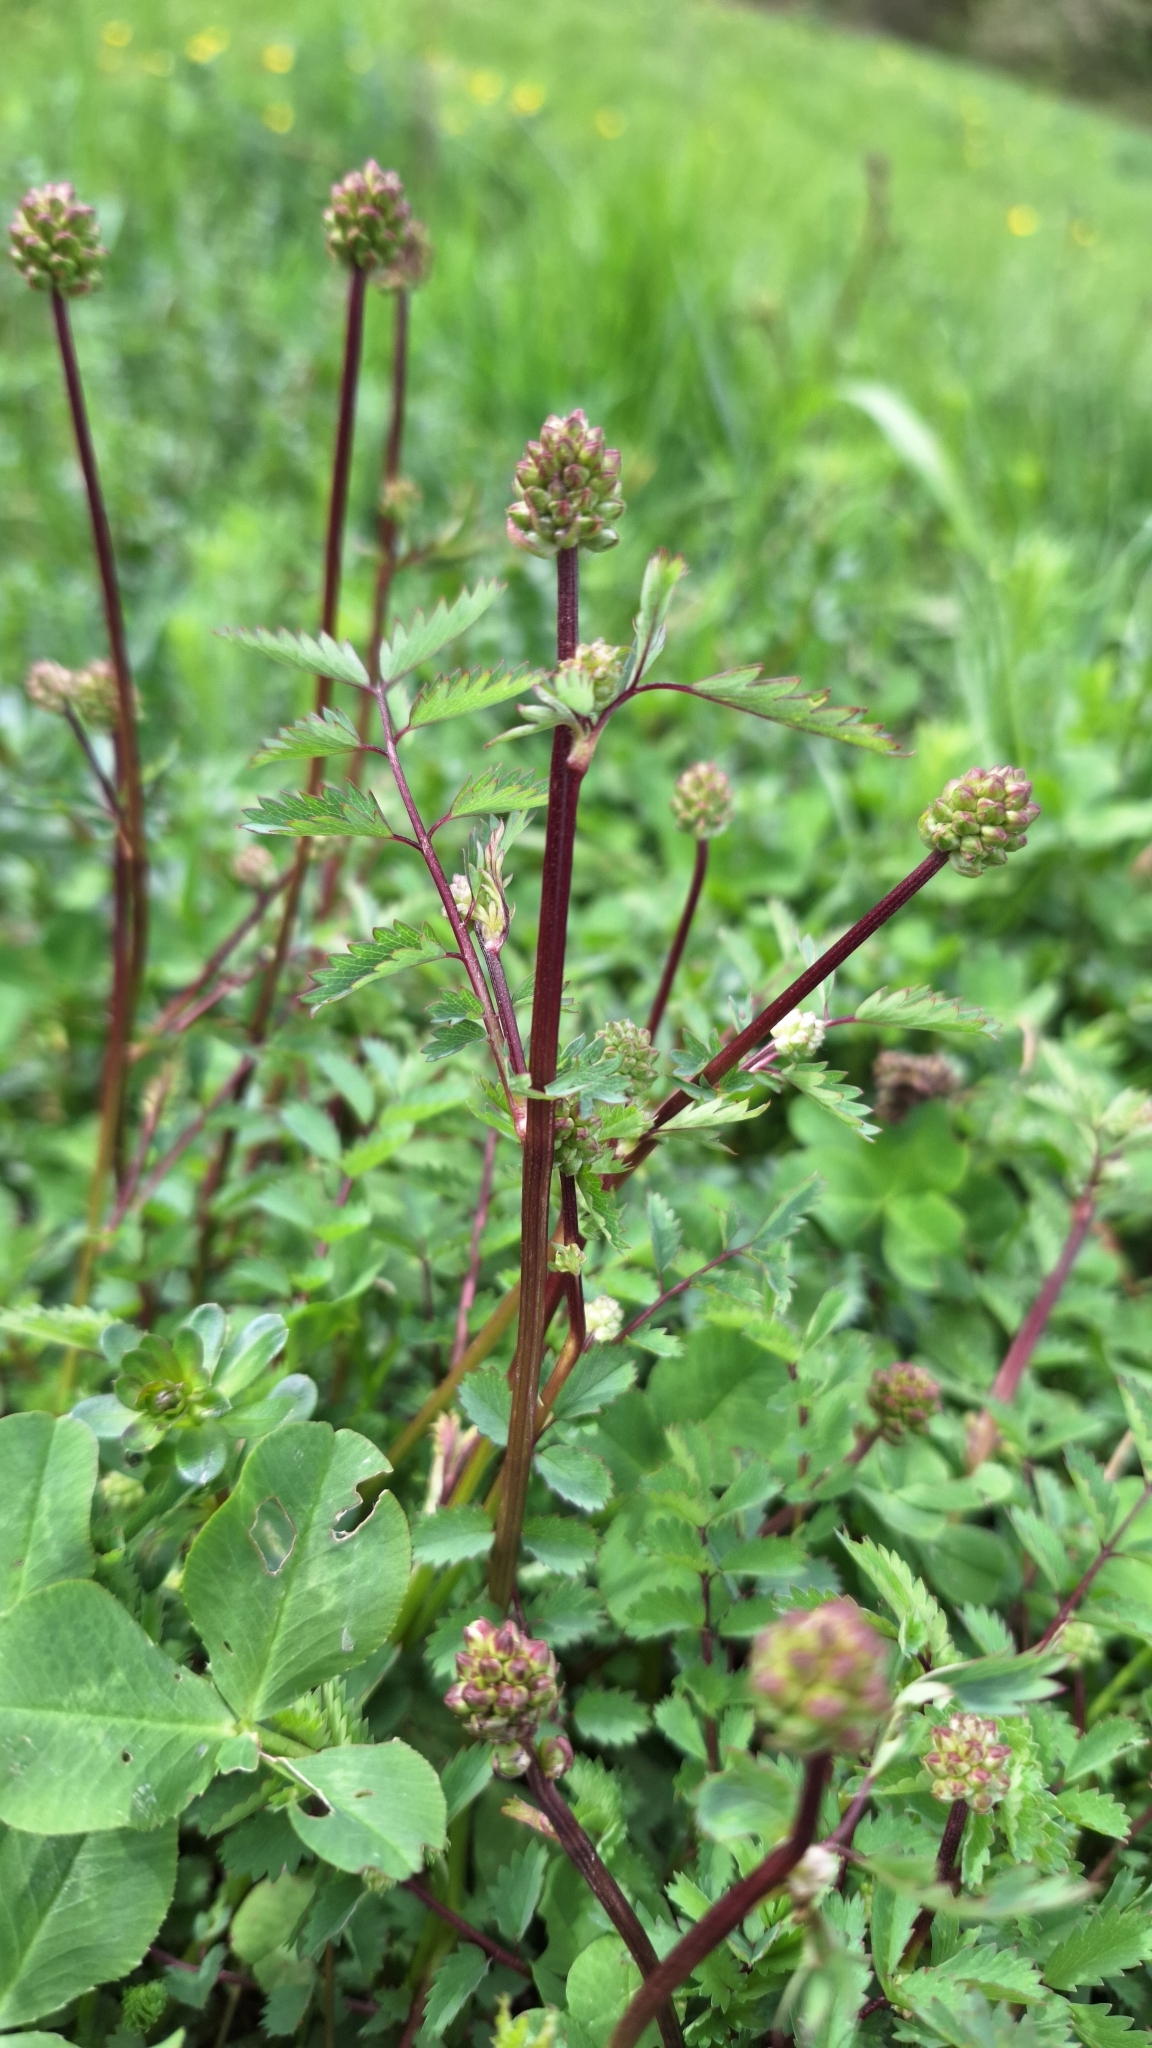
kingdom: Plantae
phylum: Tracheophyta
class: Magnoliopsida
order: Rosales
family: Rosaceae
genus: Poterium
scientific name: Poterium sanguisorba
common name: Salad burnet
